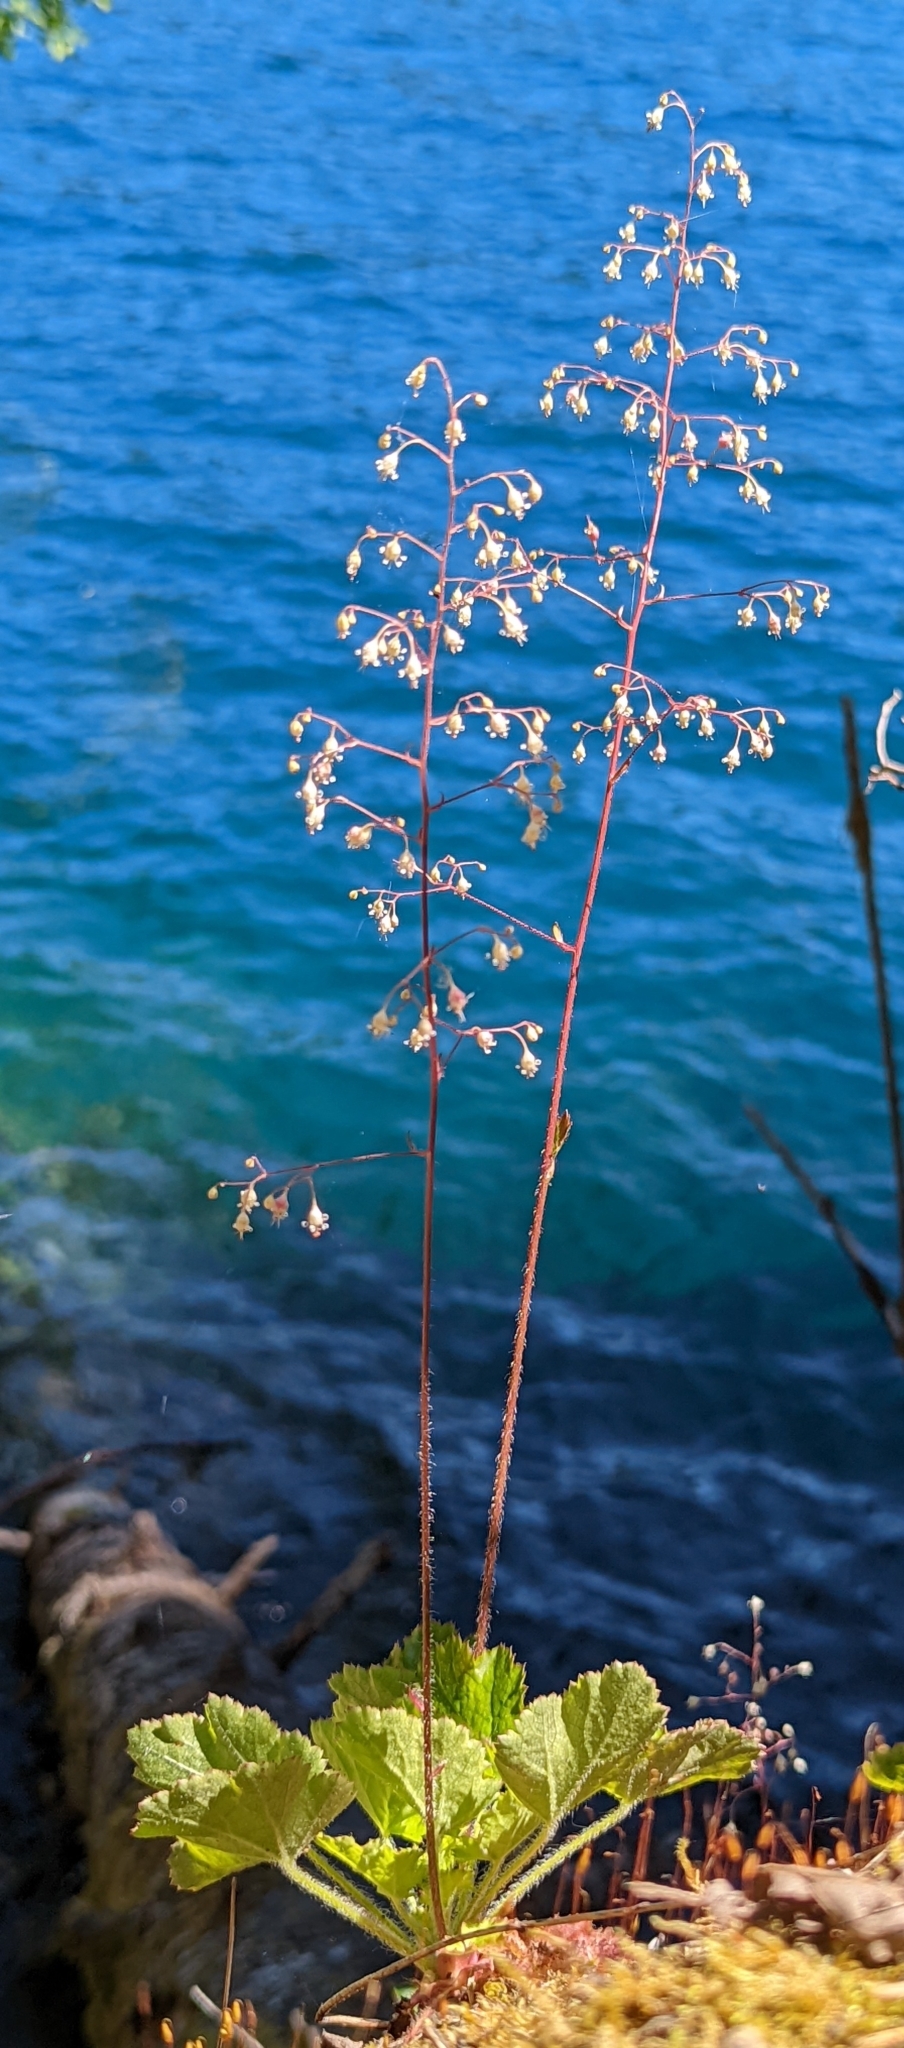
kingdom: Plantae
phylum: Tracheophyta
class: Magnoliopsida
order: Saxifragales
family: Saxifragaceae
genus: Heuchera
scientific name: Heuchera micrantha
